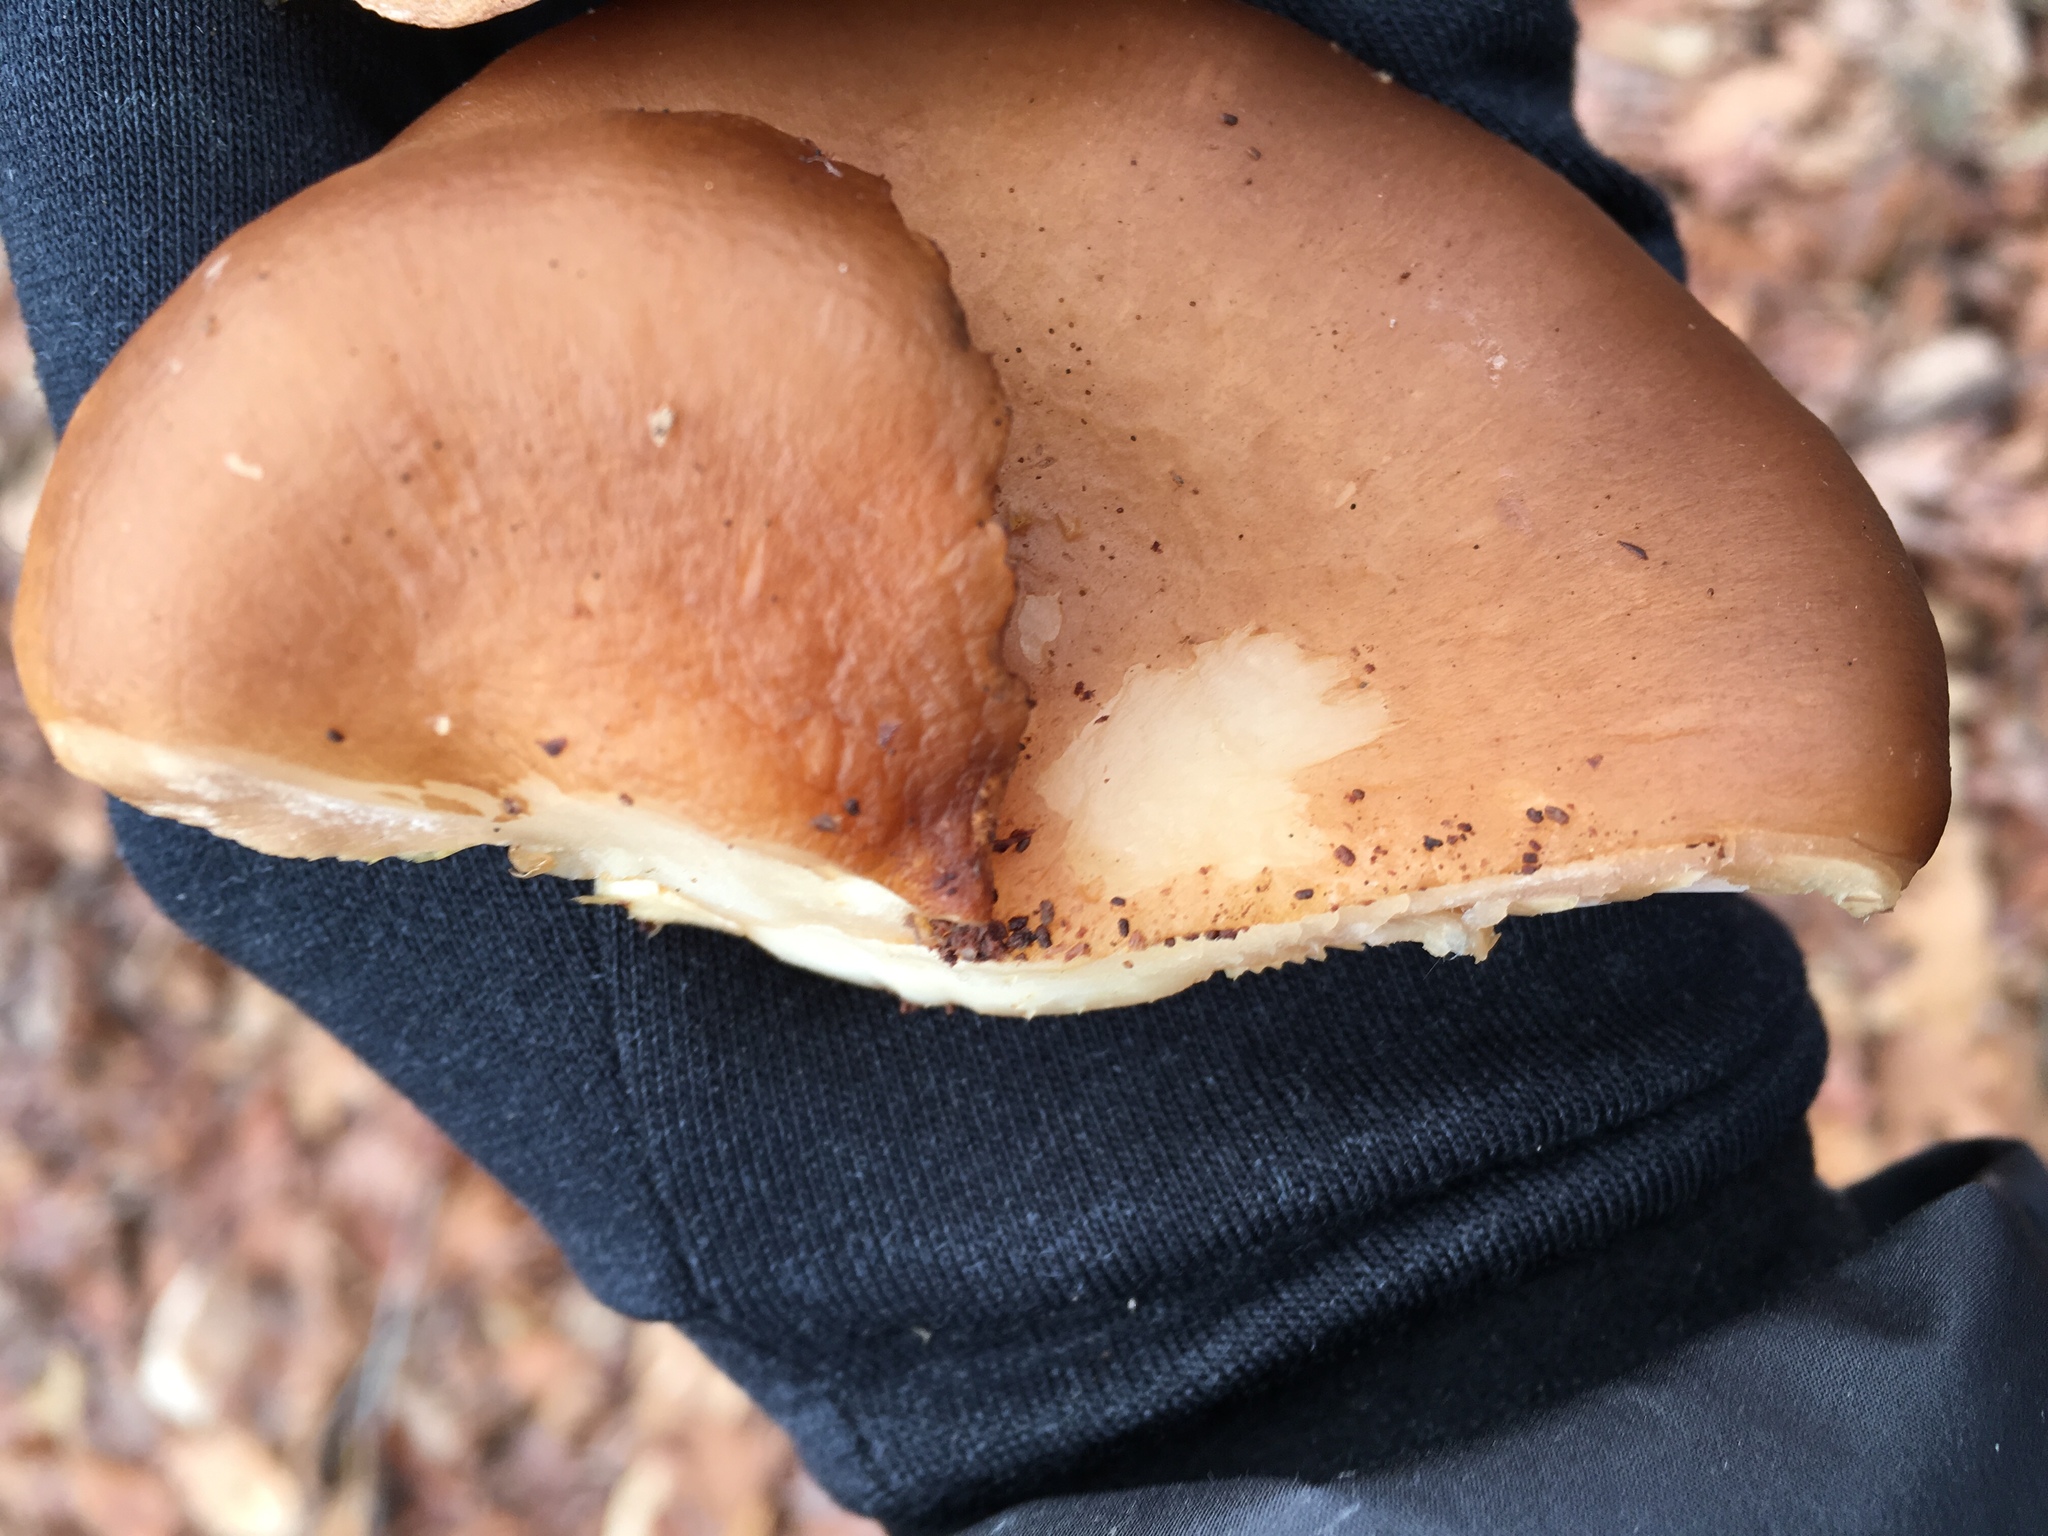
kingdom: Fungi
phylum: Basidiomycota
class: Agaricomycetes
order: Agaricales
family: Sarcomyxaceae
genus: Sarcomyxa
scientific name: Sarcomyxa serotina
